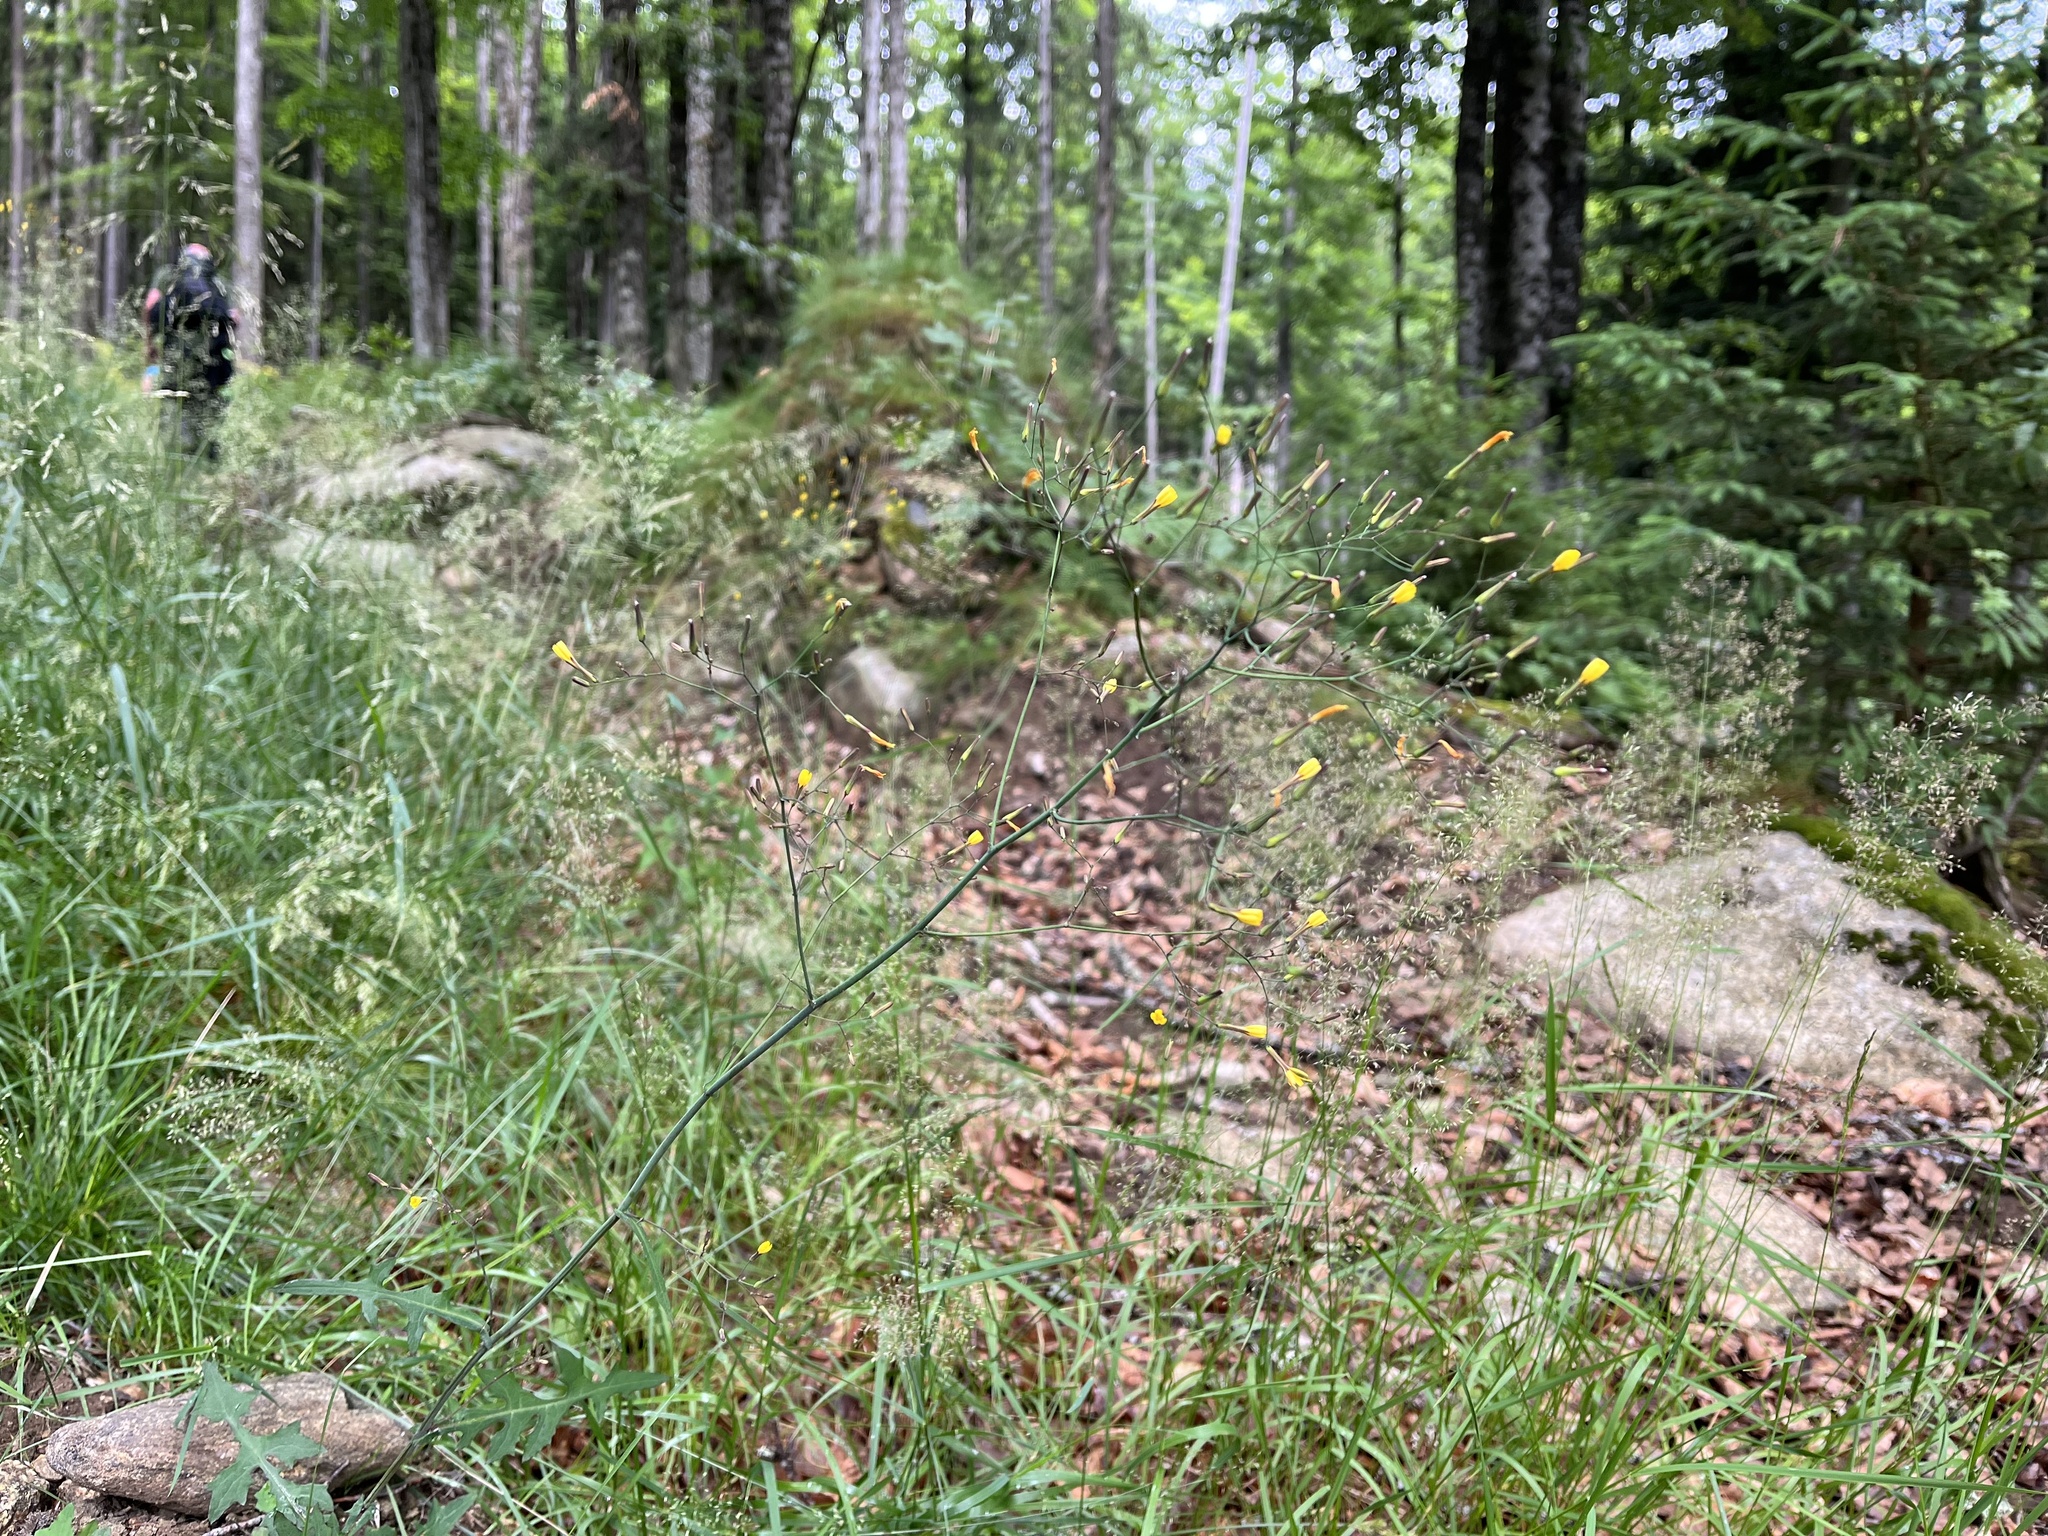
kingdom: Plantae
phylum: Tracheophyta
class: Magnoliopsida
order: Asterales
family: Asteraceae
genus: Mycelis
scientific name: Mycelis muralis
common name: Wall lettuce
